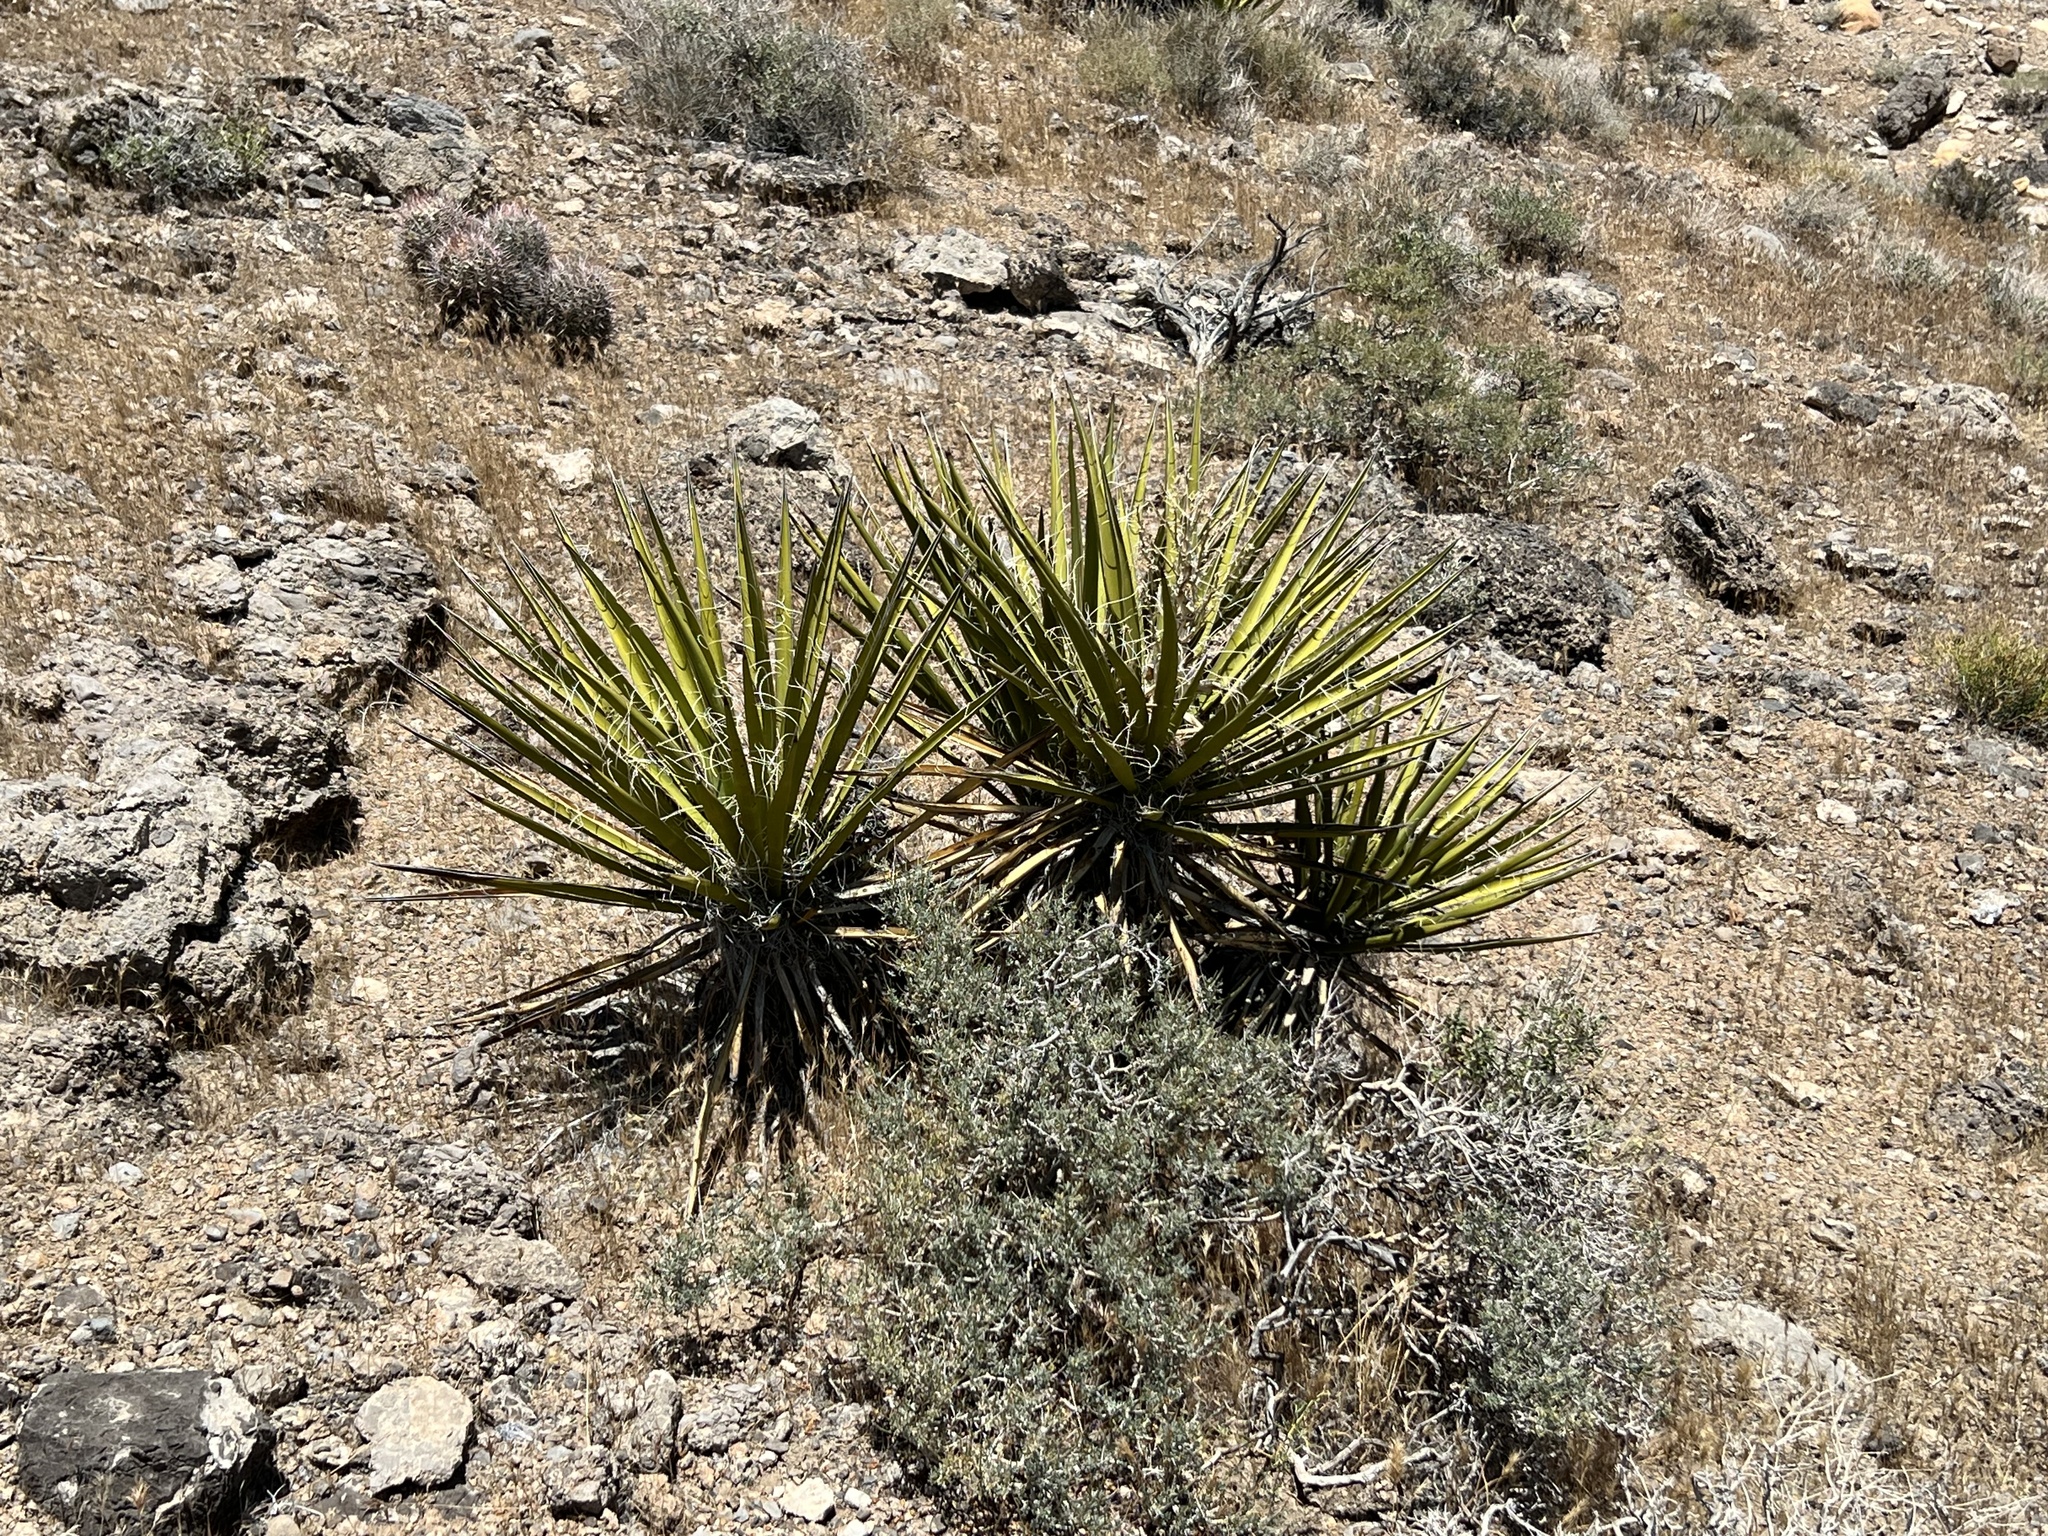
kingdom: Plantae
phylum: Tracheophyta
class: Liliopsida
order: Asparagales
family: Asparagaceae
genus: Yucca
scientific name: Yucca schidigera
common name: Mojave yucca
